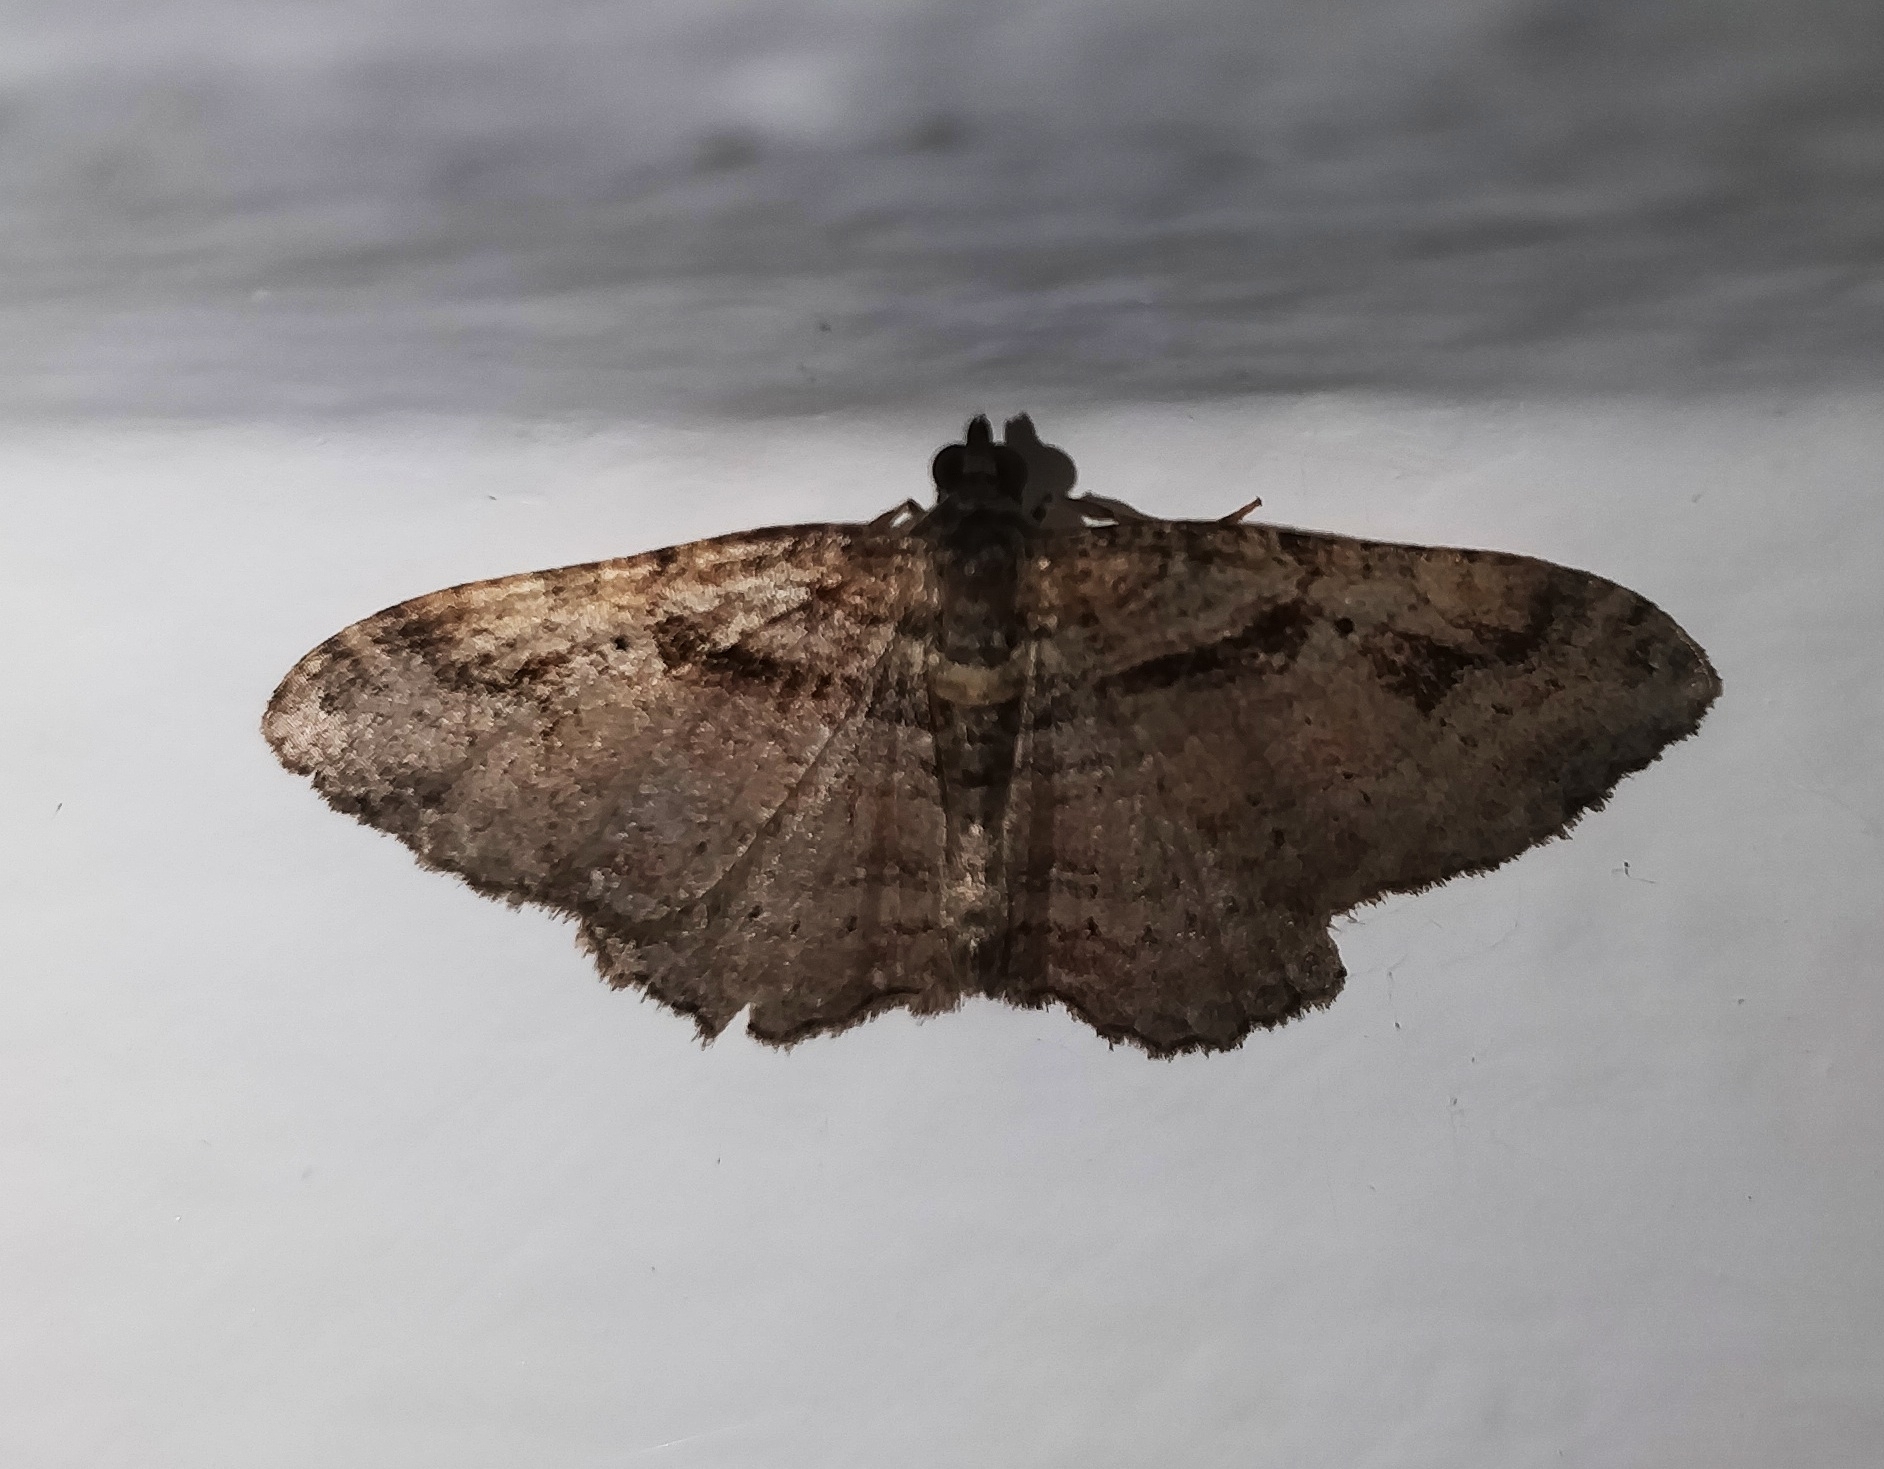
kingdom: Animalia
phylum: Arthropoda
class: Insecta
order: Lepidoptera
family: Geometridae
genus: Costaconvexa
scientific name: Costaconvexa centrostrigaria
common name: Bent-line carpet
